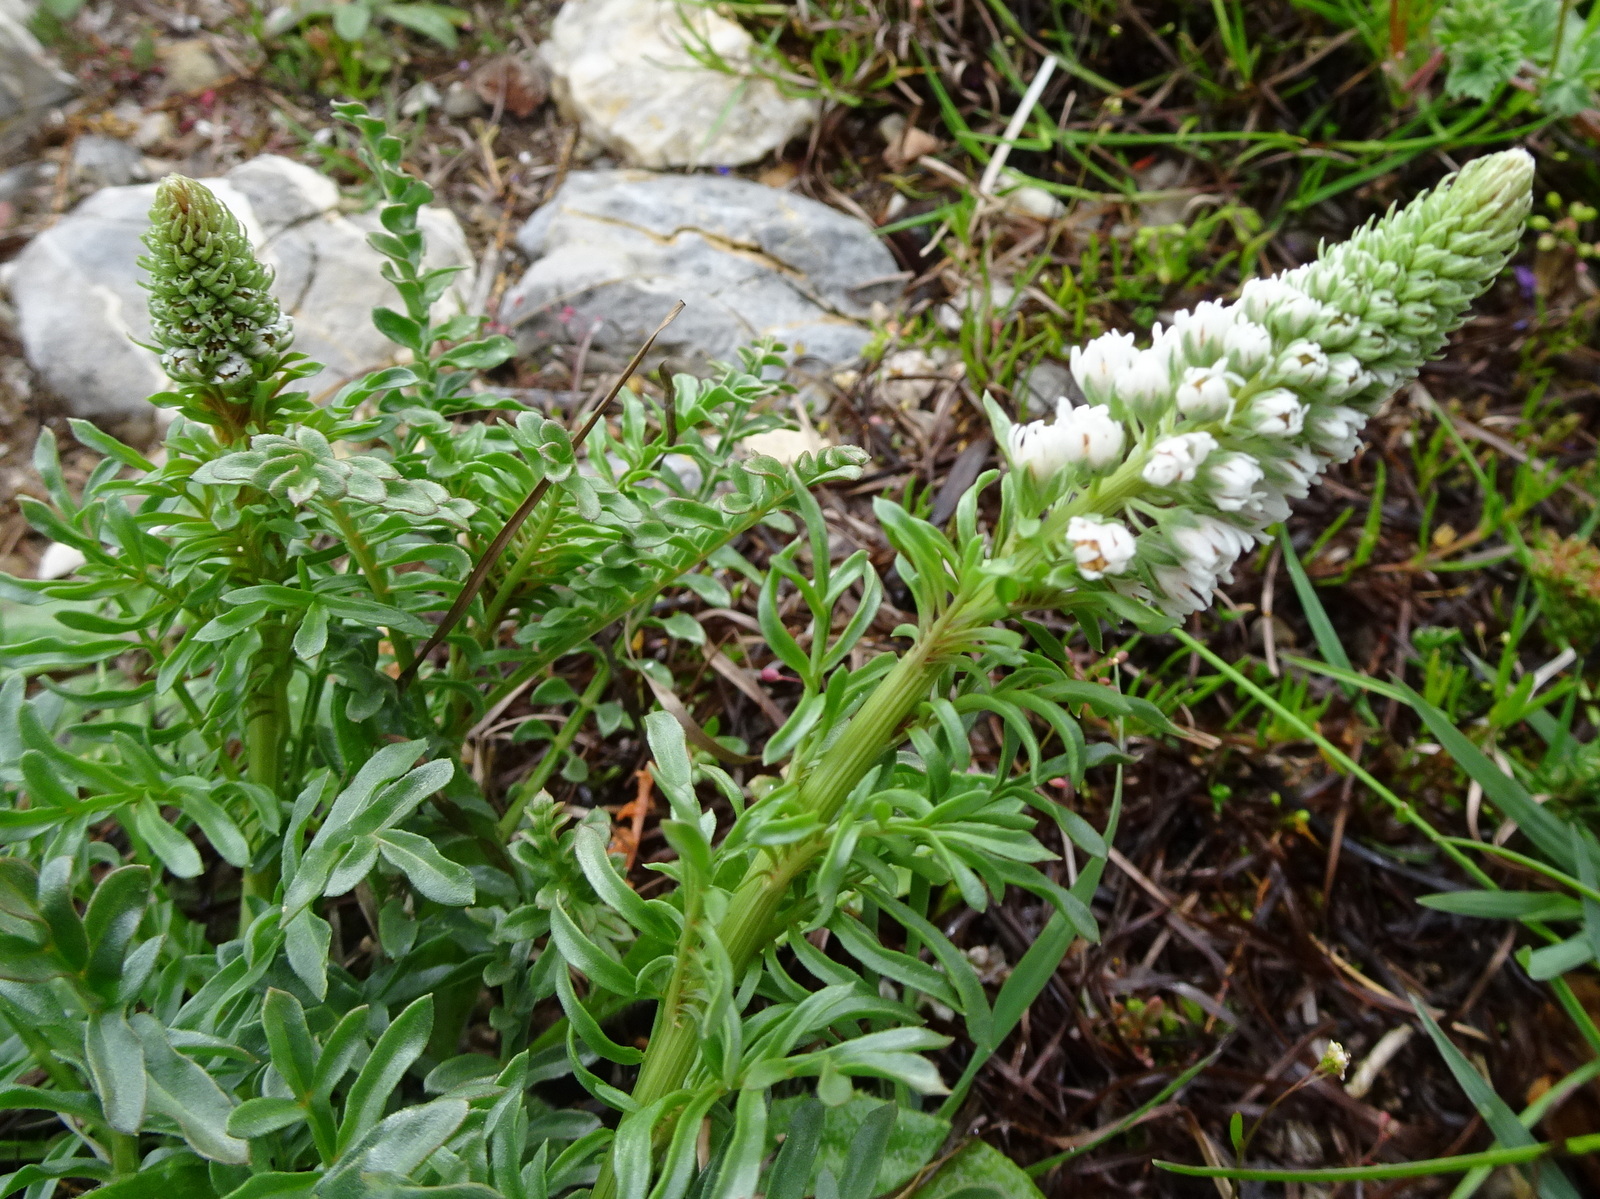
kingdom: Plantae
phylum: Tracheophyta
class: Magnoliopsida
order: Brassicales
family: Resedaceae
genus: Reseda
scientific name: Reseda alba
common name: White mignonette
